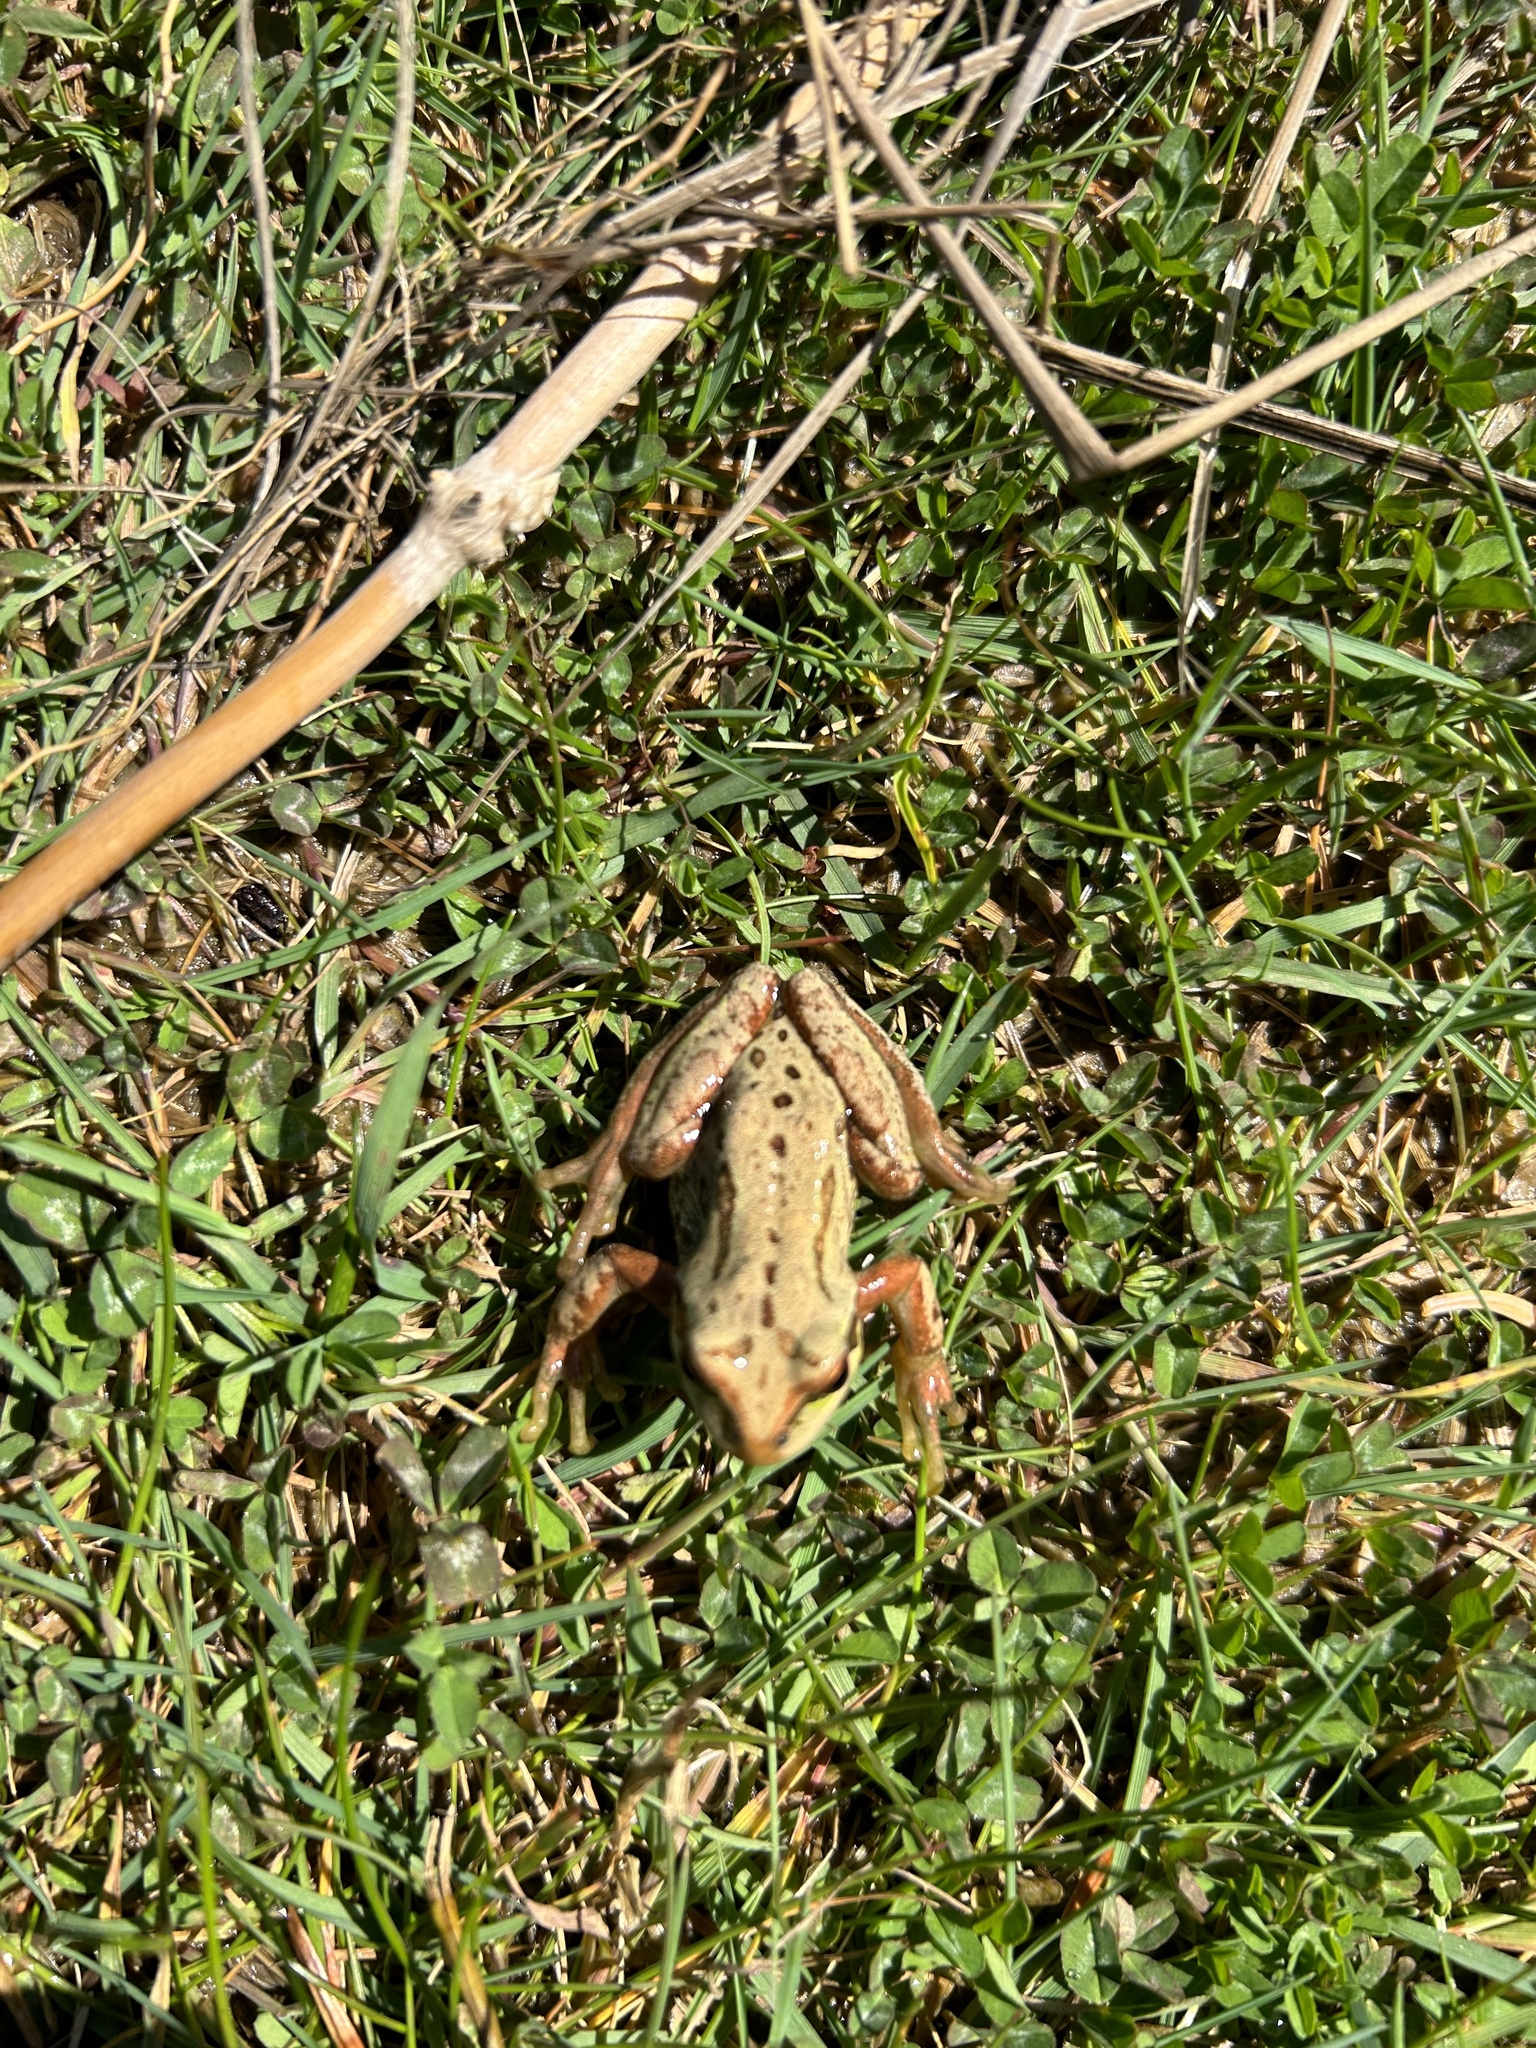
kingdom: Animalia
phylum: Chordata
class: Amphibia
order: Anura
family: Hylidae
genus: Pseudacris
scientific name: Pseudacris regilla
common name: Pacific chorus frog
